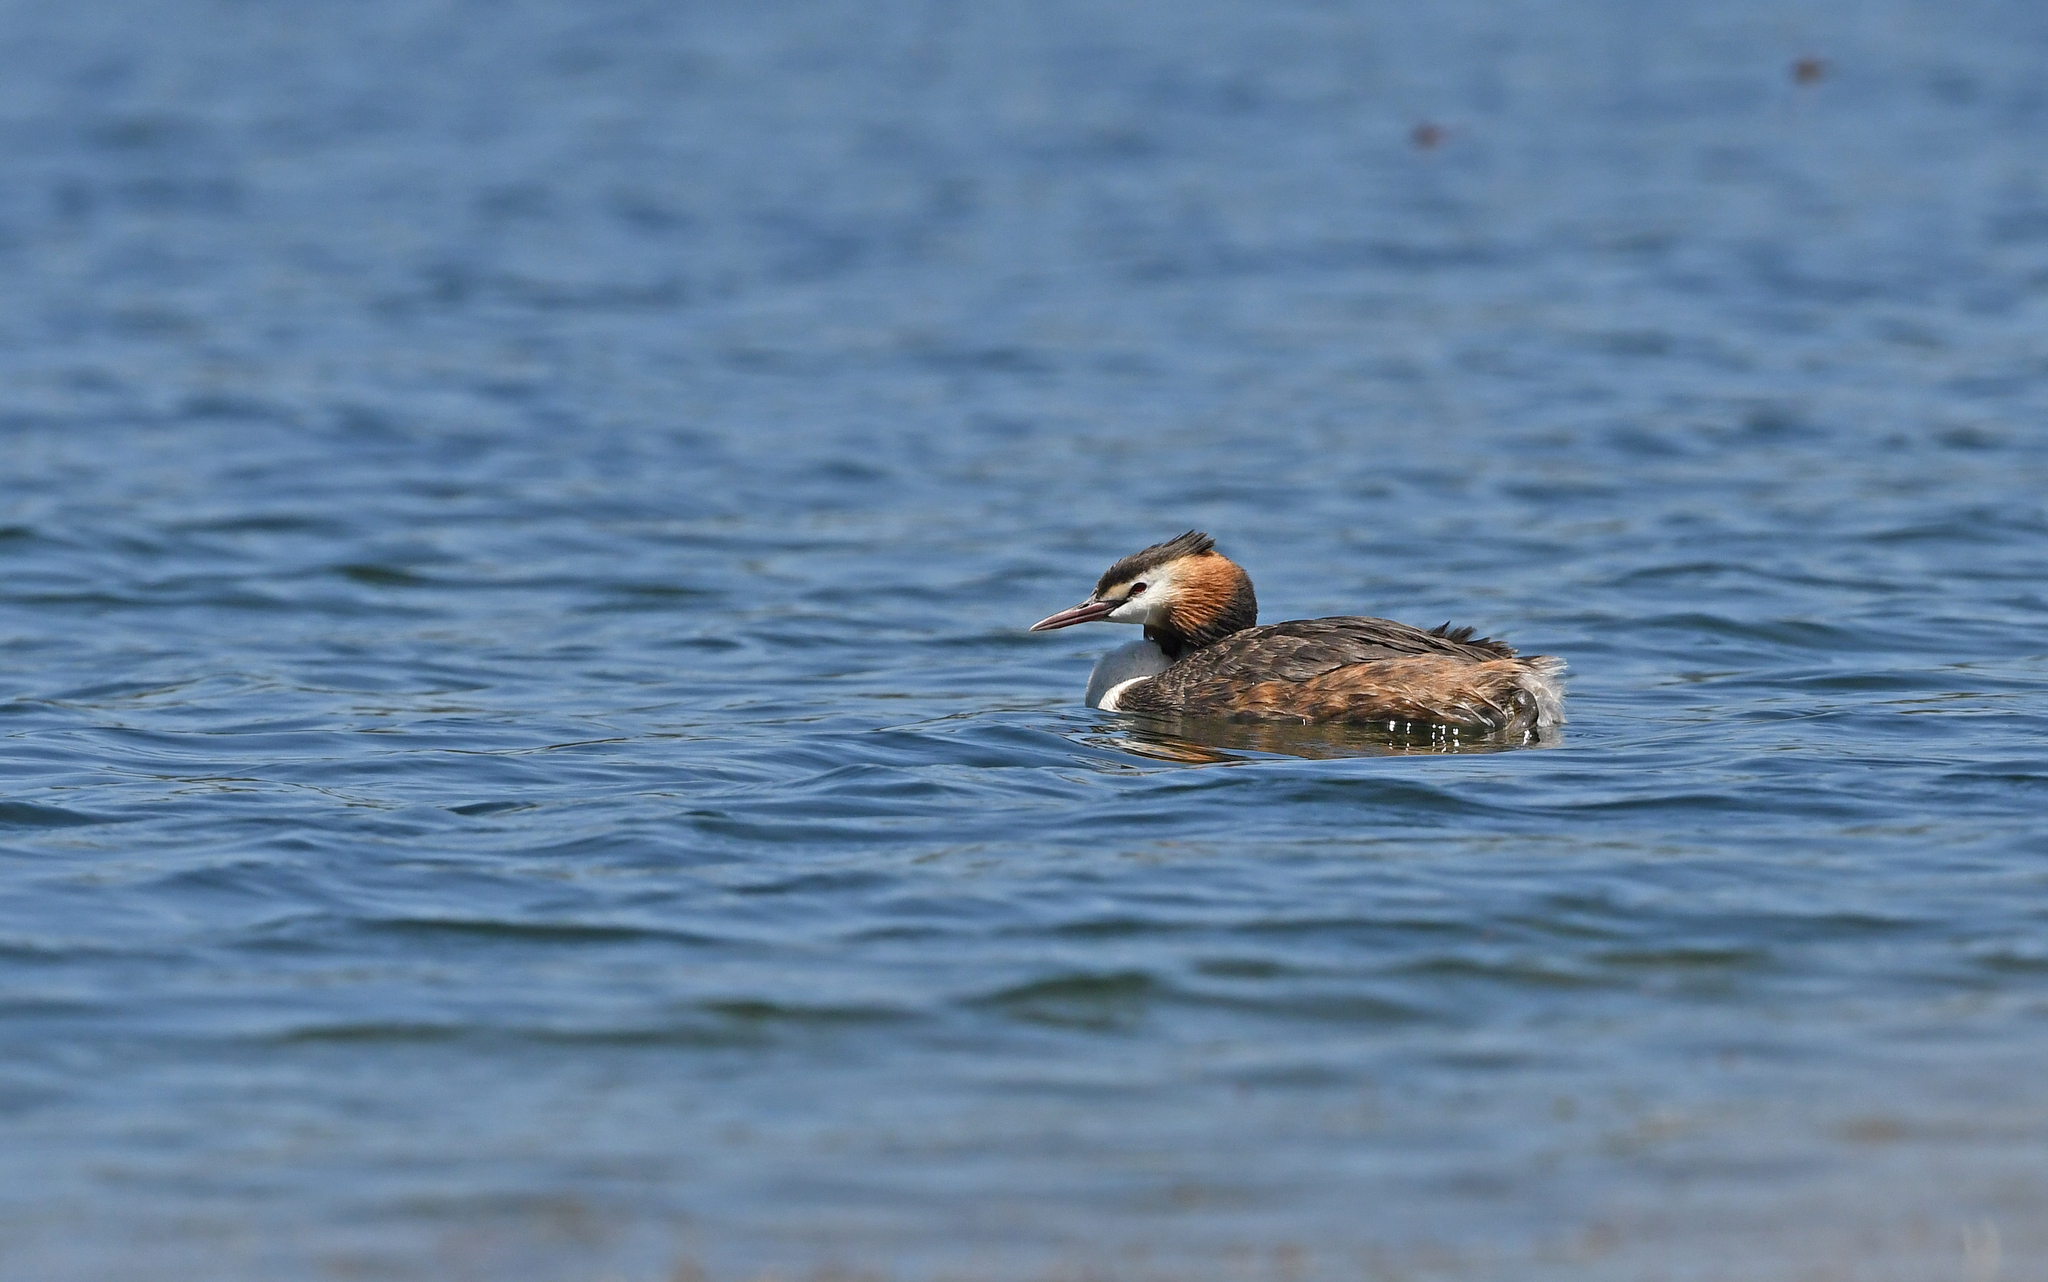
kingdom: Animalia
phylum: Chordata
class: Aves
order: Podicipediformes
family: Podicipedidae
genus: Podiceps
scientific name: Podiceps cristatus
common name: Great crested grebe
